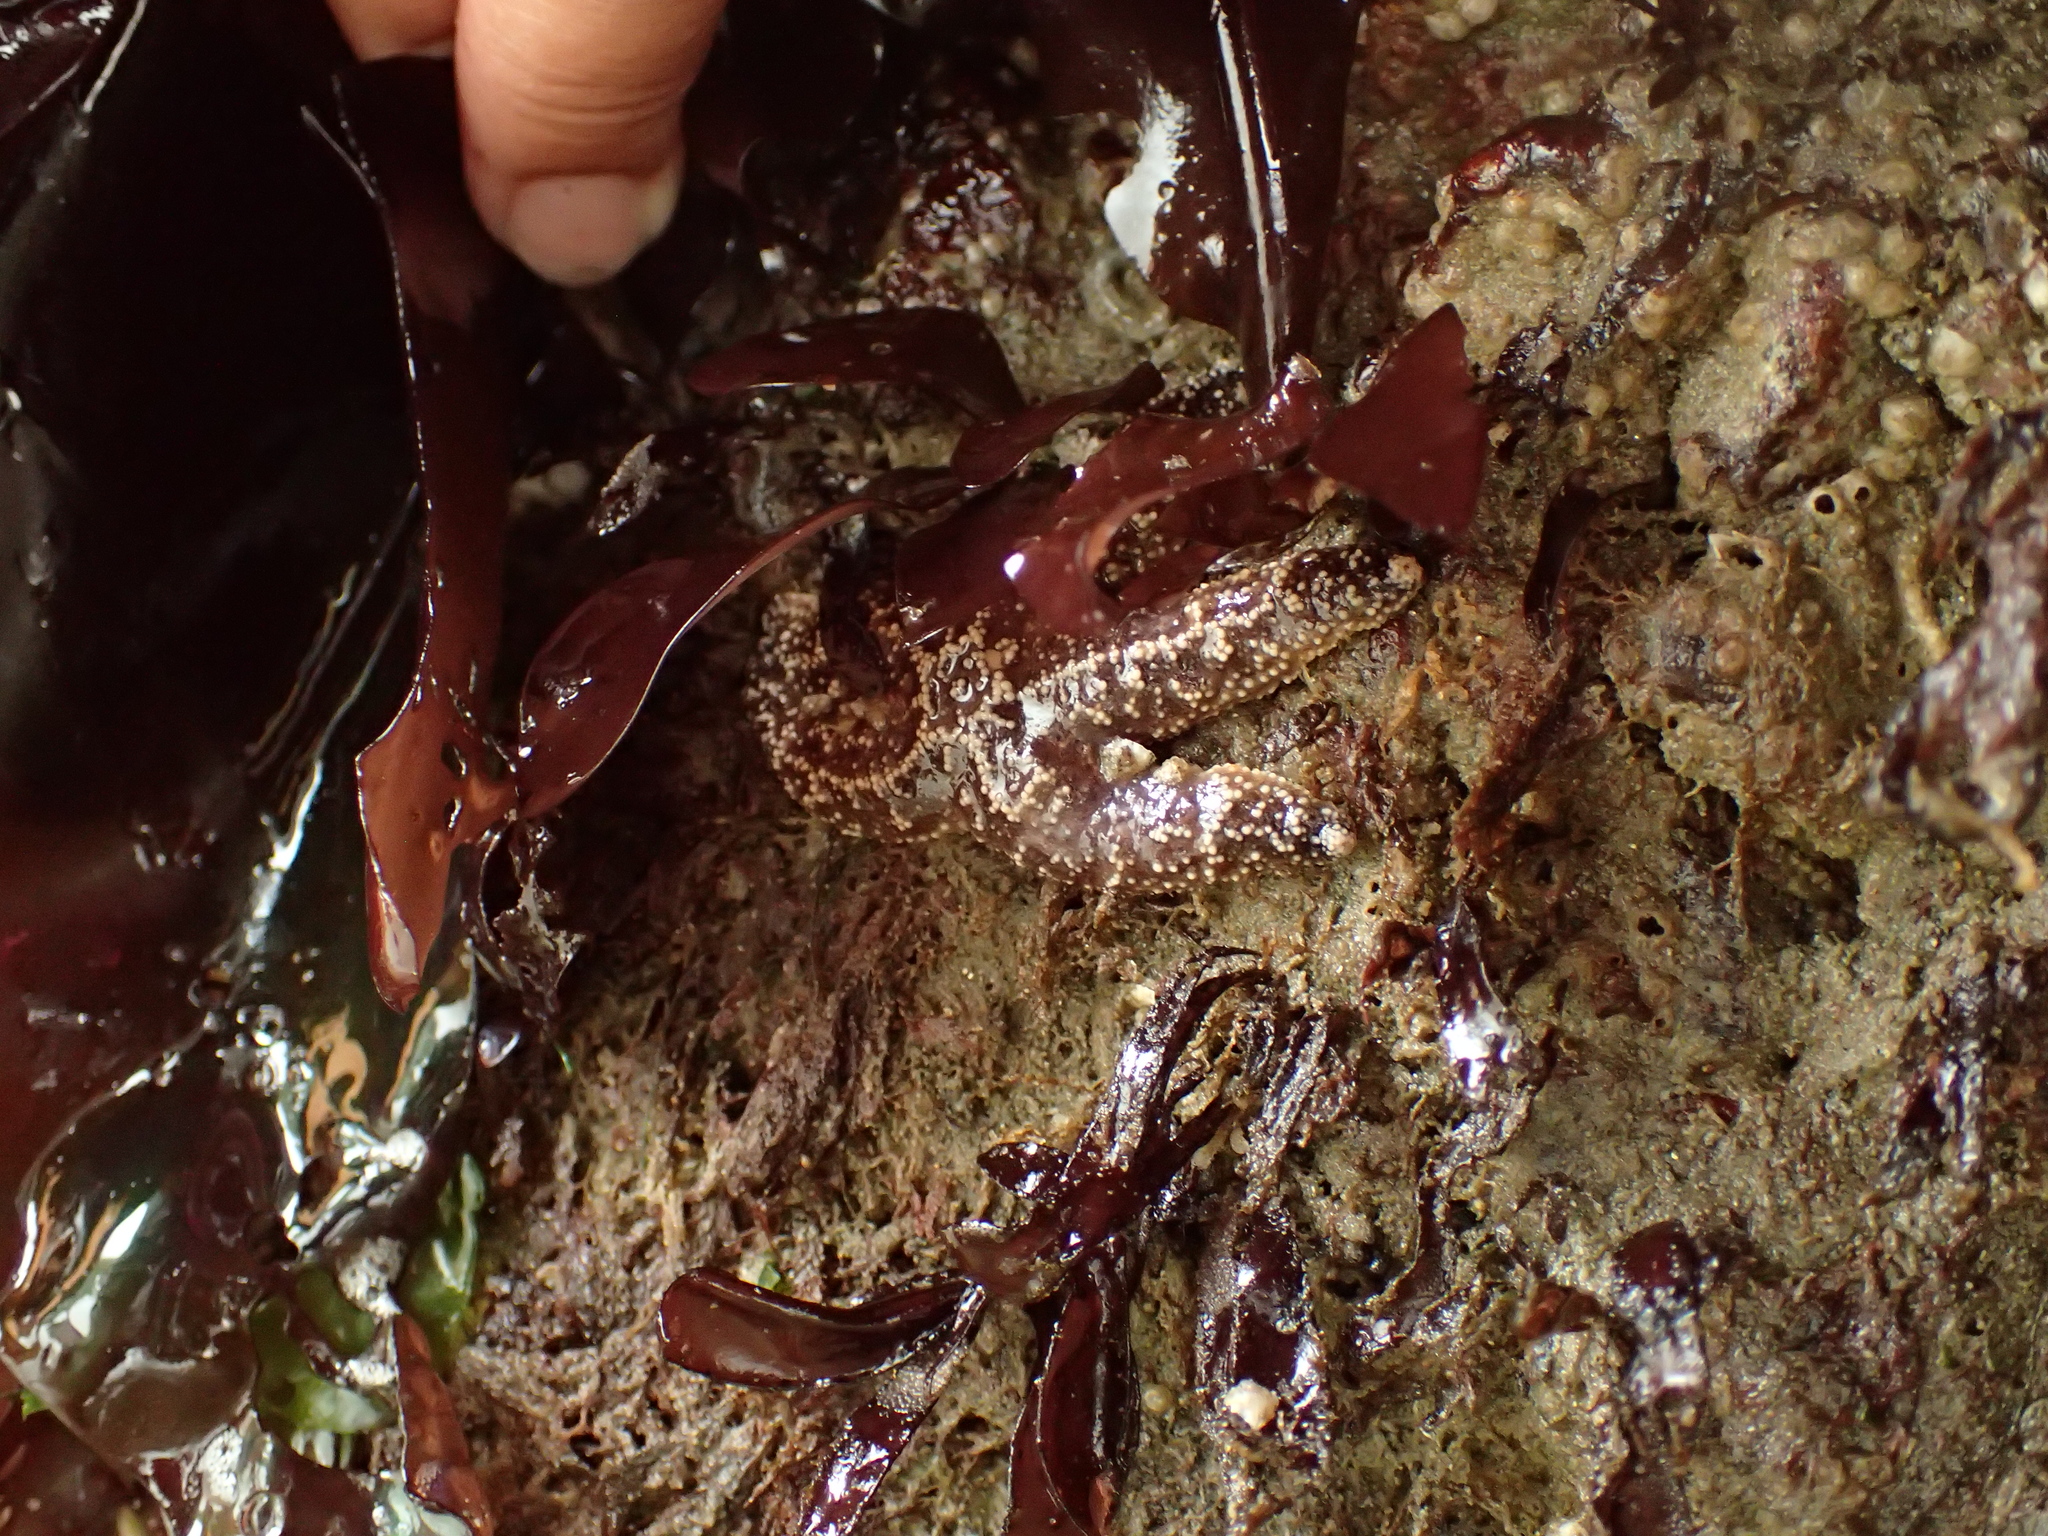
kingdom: Animalia
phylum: Echinodermata
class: Asteroidea
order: Forcipulatida
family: Asteriidae
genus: Pisaster
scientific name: Pisaster ochraceus
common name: Ochre stars
